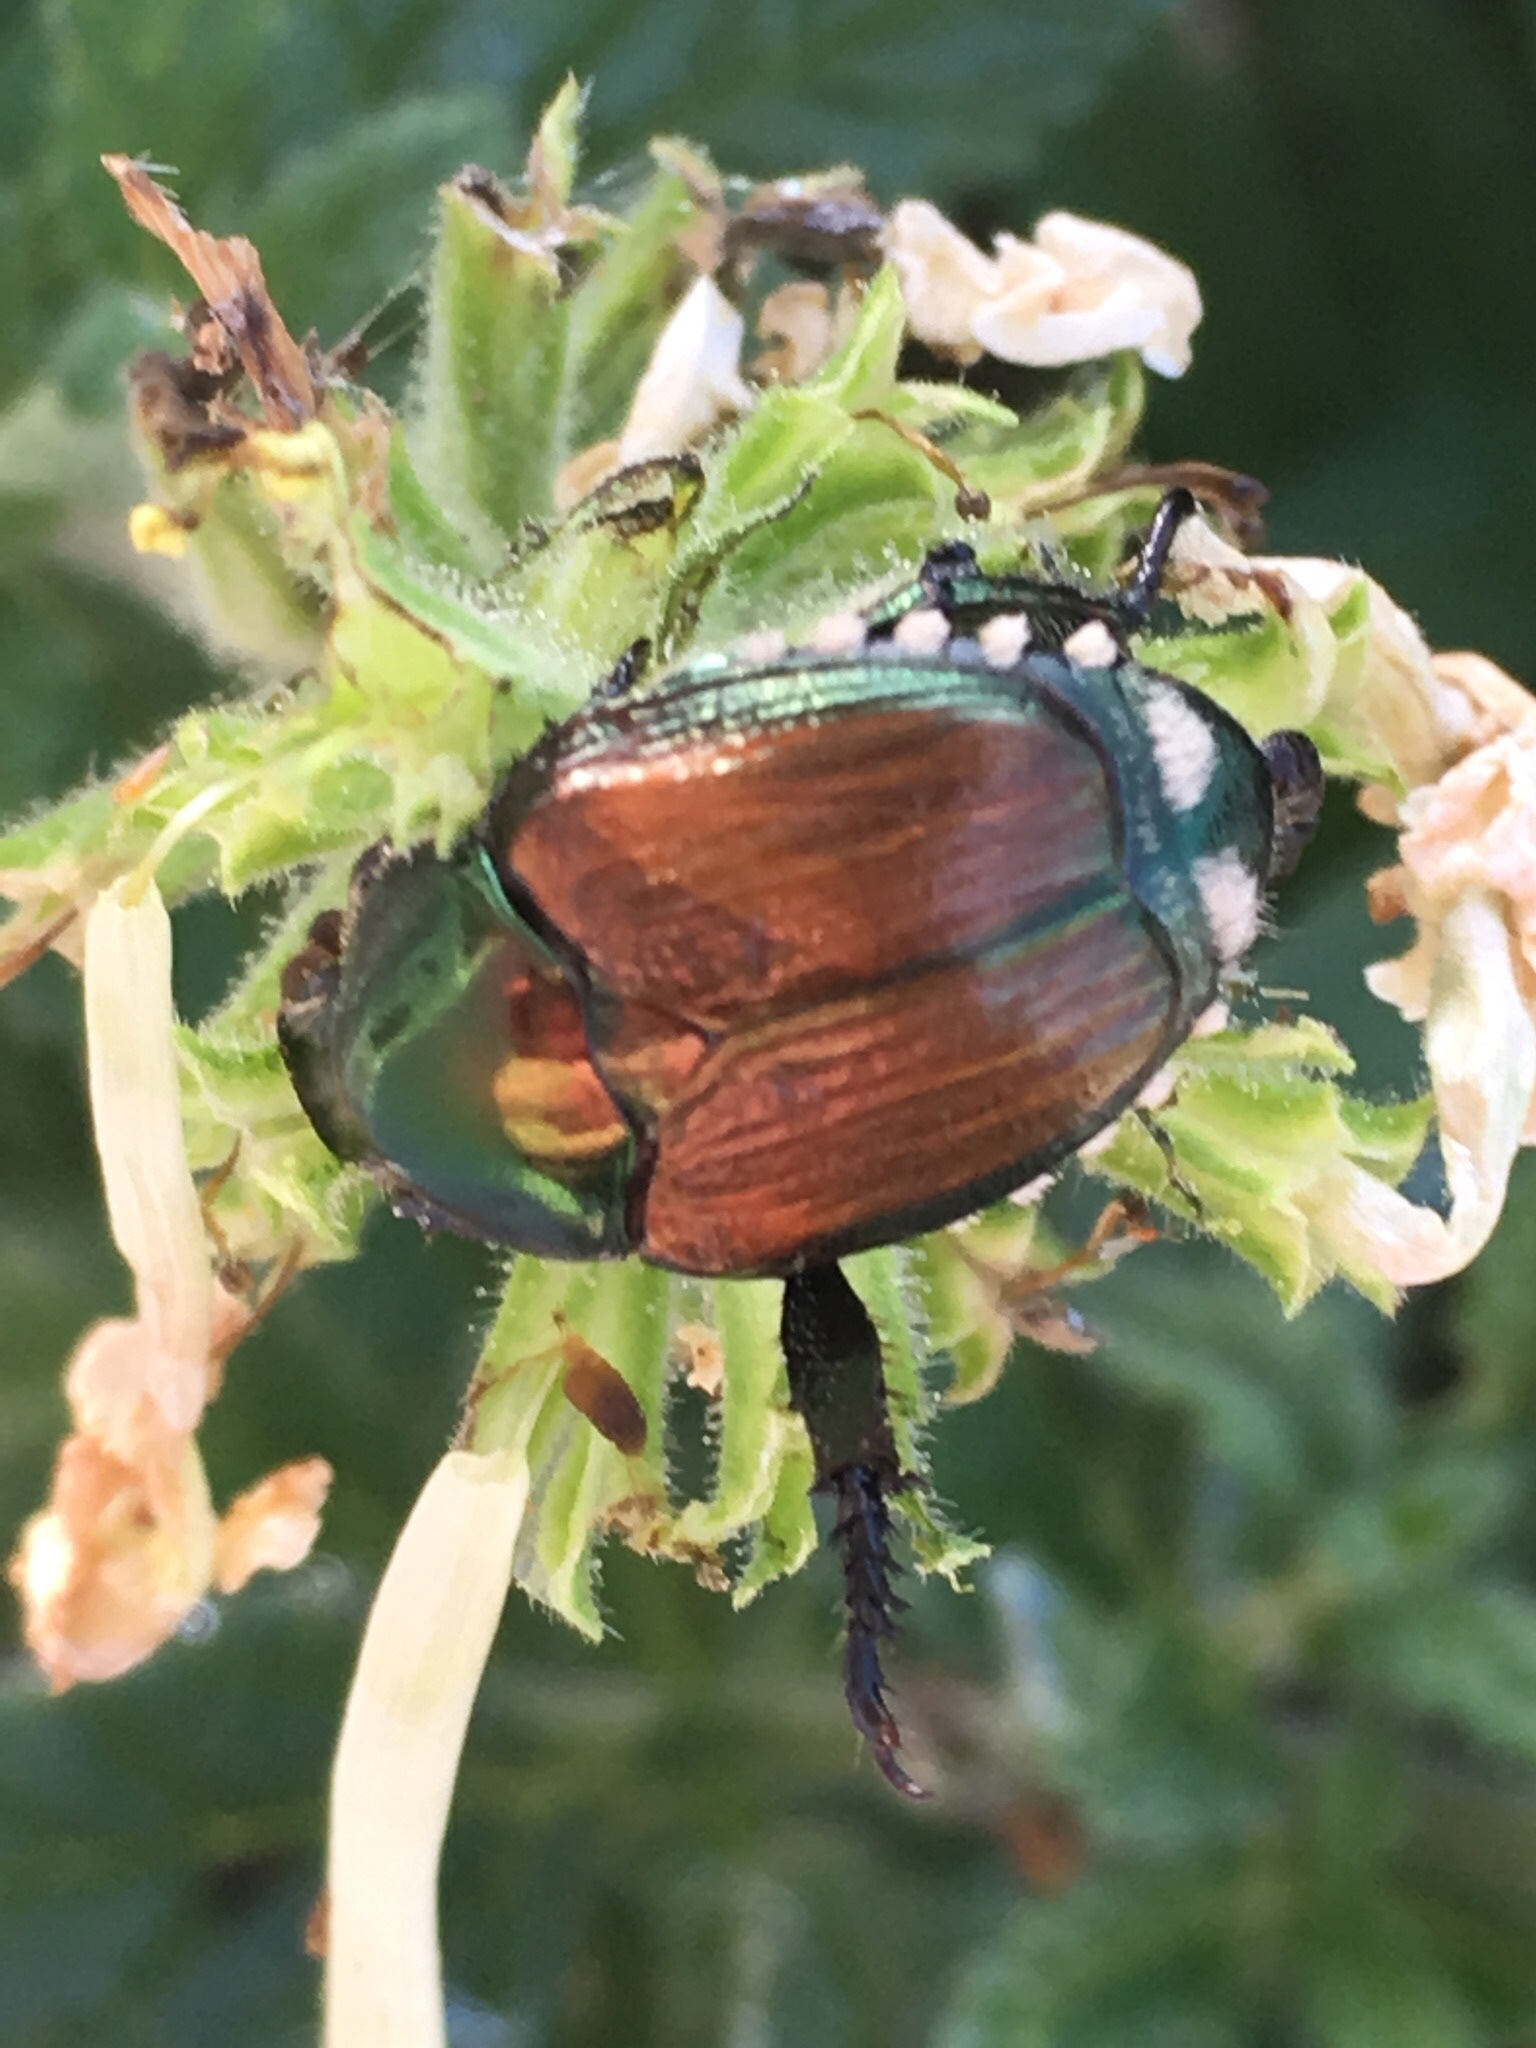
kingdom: Animalia
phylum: Arthropoda
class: Insecta
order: Coleoptera
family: Scarabaeidae
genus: Popillia
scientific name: Popillia japonica
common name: Japanese beetle
